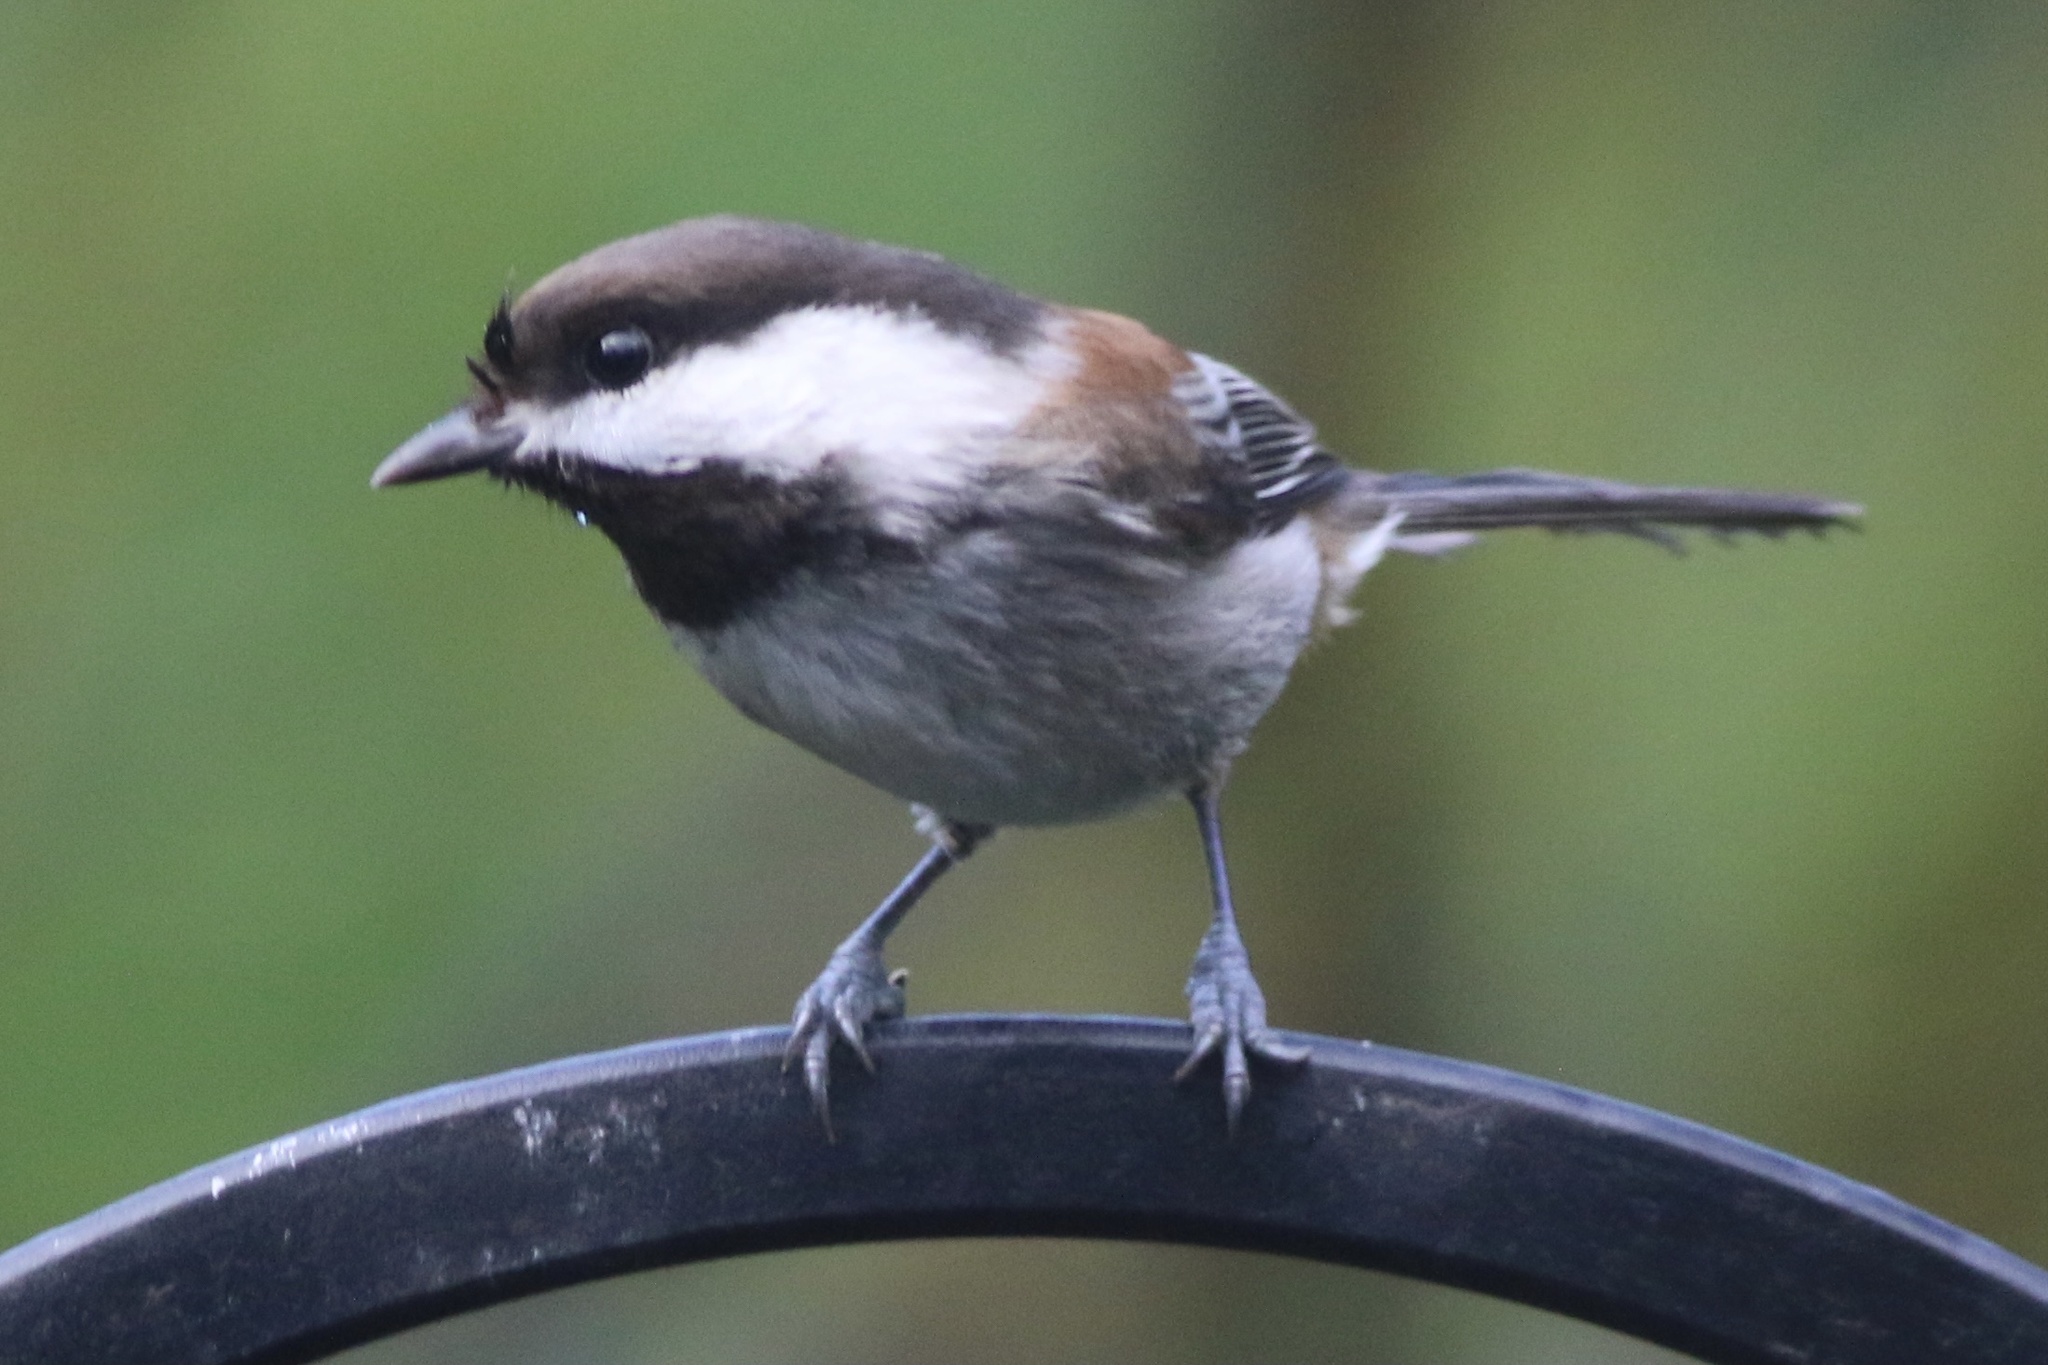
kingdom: Animalia
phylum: Chordata
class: Aves
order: Passeriformes
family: Paridae
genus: Poecile
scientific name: Poecile rufescens
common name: Chestnut-backed chickadee
